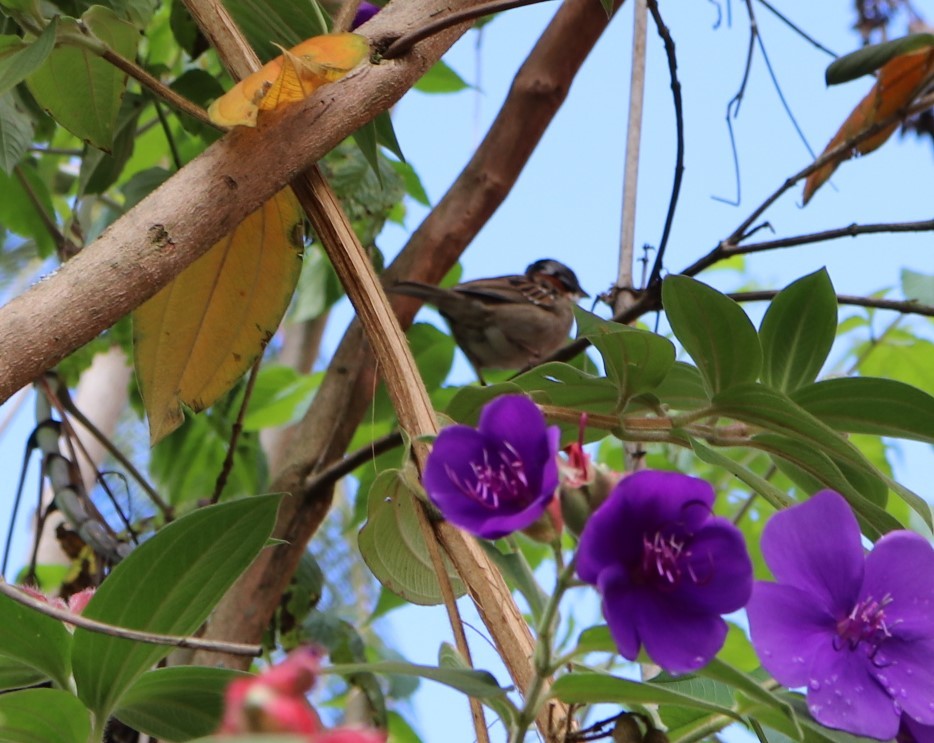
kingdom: Animalia
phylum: Chordata
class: Aves
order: Passeriformes
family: Passerellidae
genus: Zonotrichia
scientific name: Zonotrichia capensis
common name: Rufous-collared sparrow
